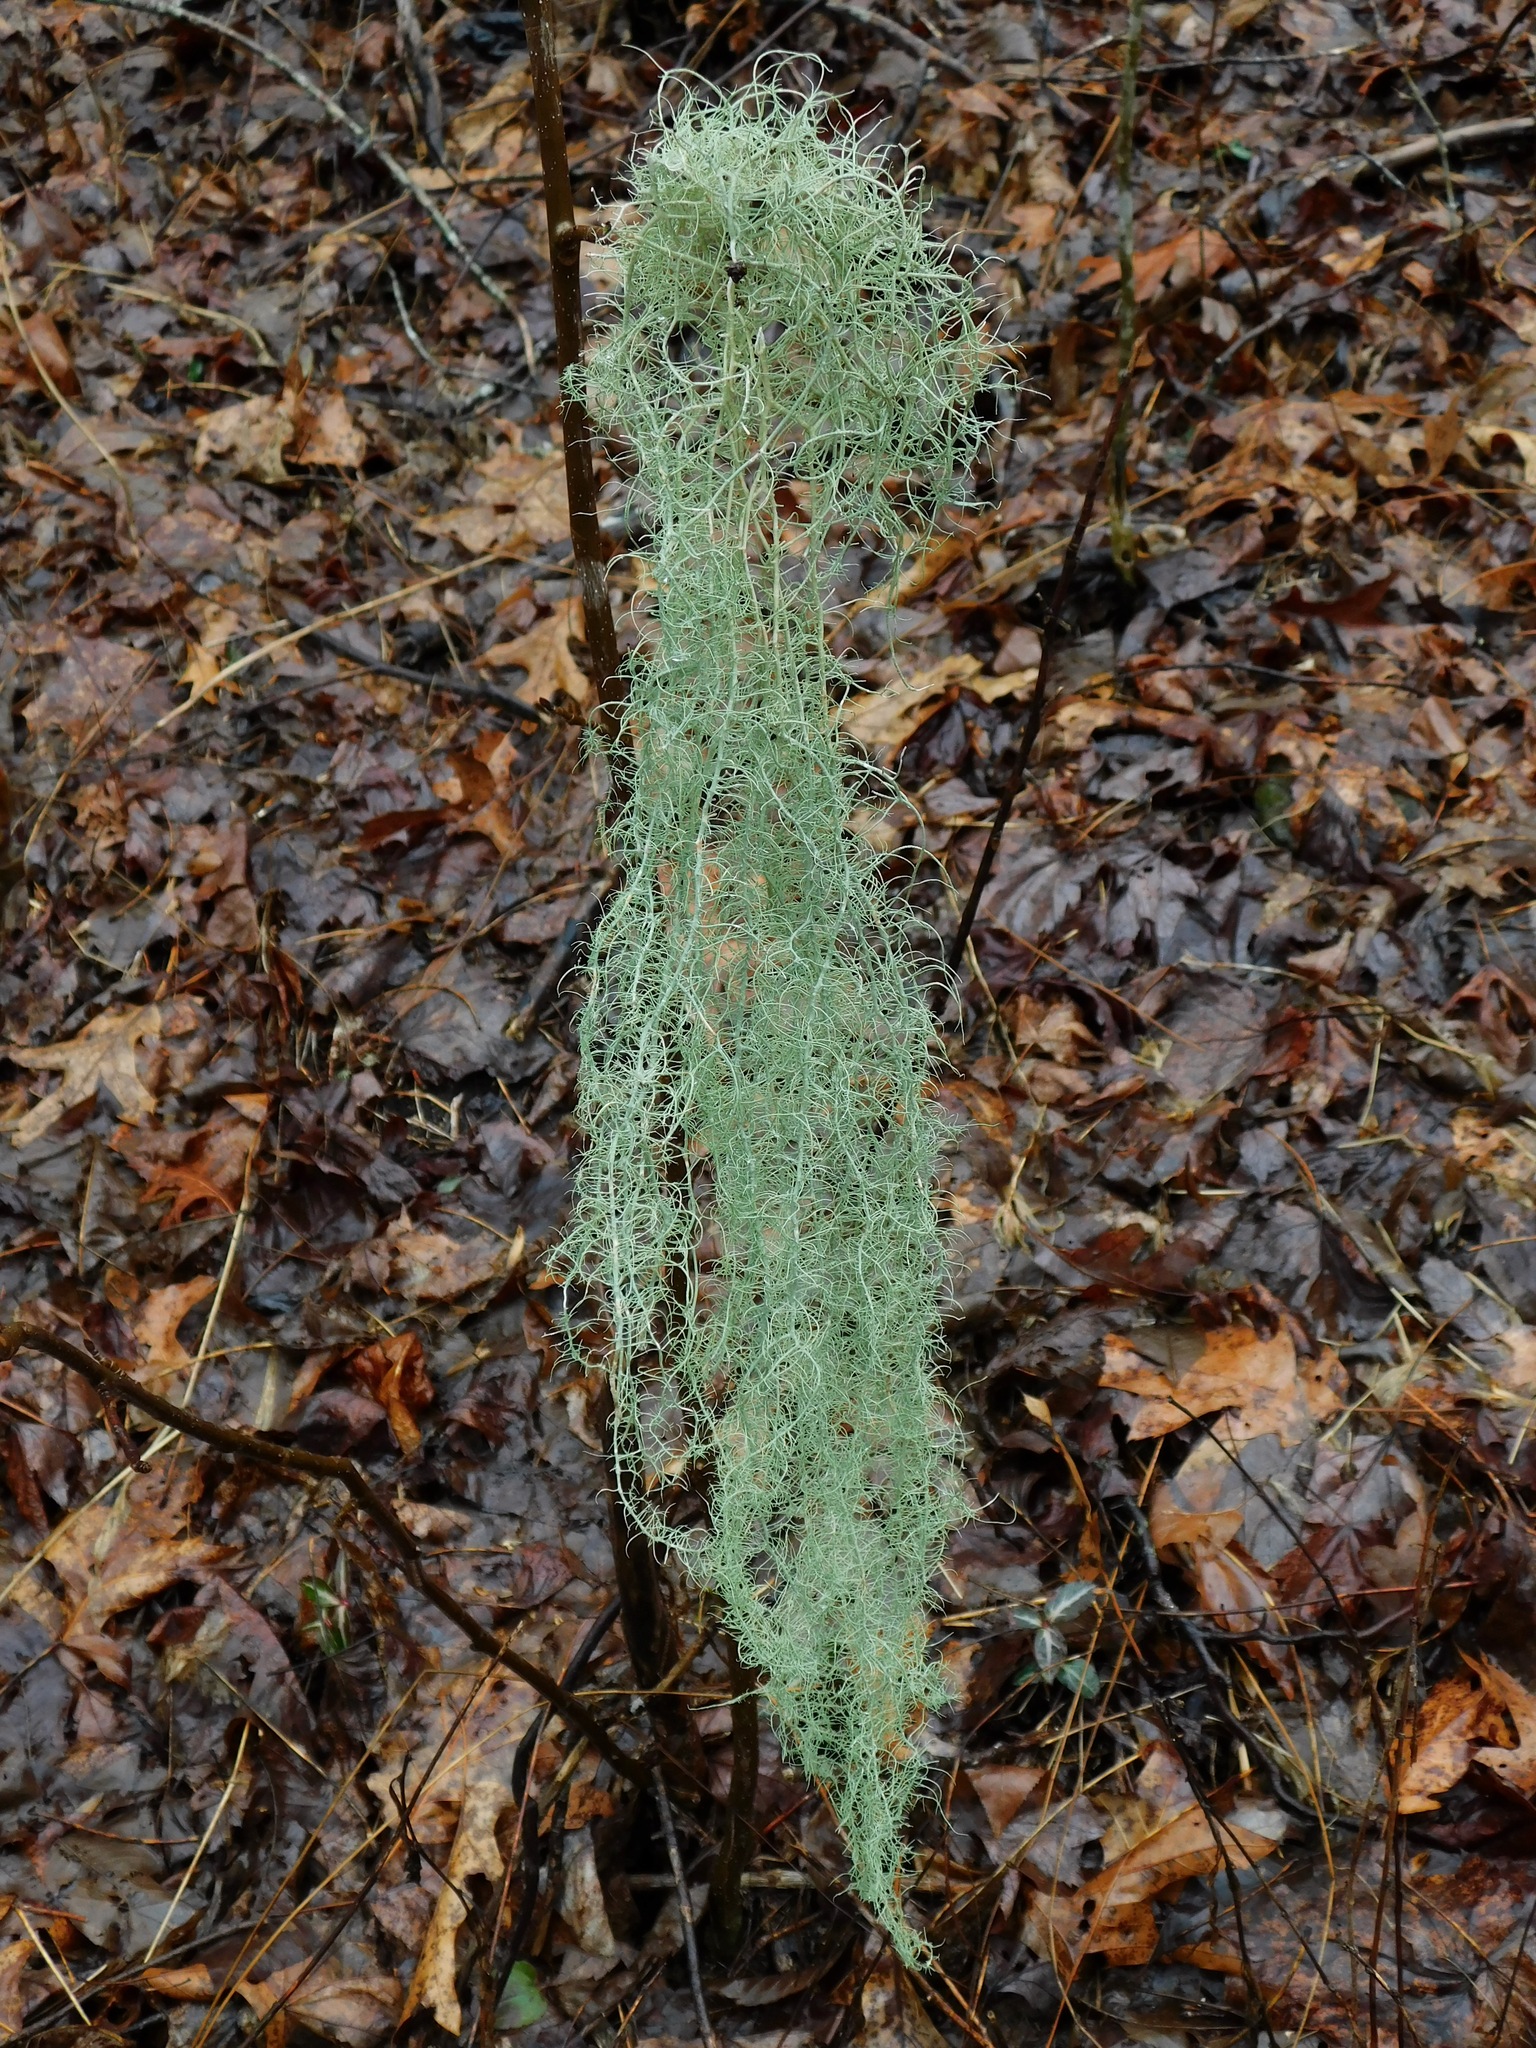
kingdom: Fungi
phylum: Ascomycota
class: Lecanoromycetes
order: Lecanorales
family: Parmeliaceae
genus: Usnea
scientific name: Usnea ceratina
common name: Warty beard lichen
